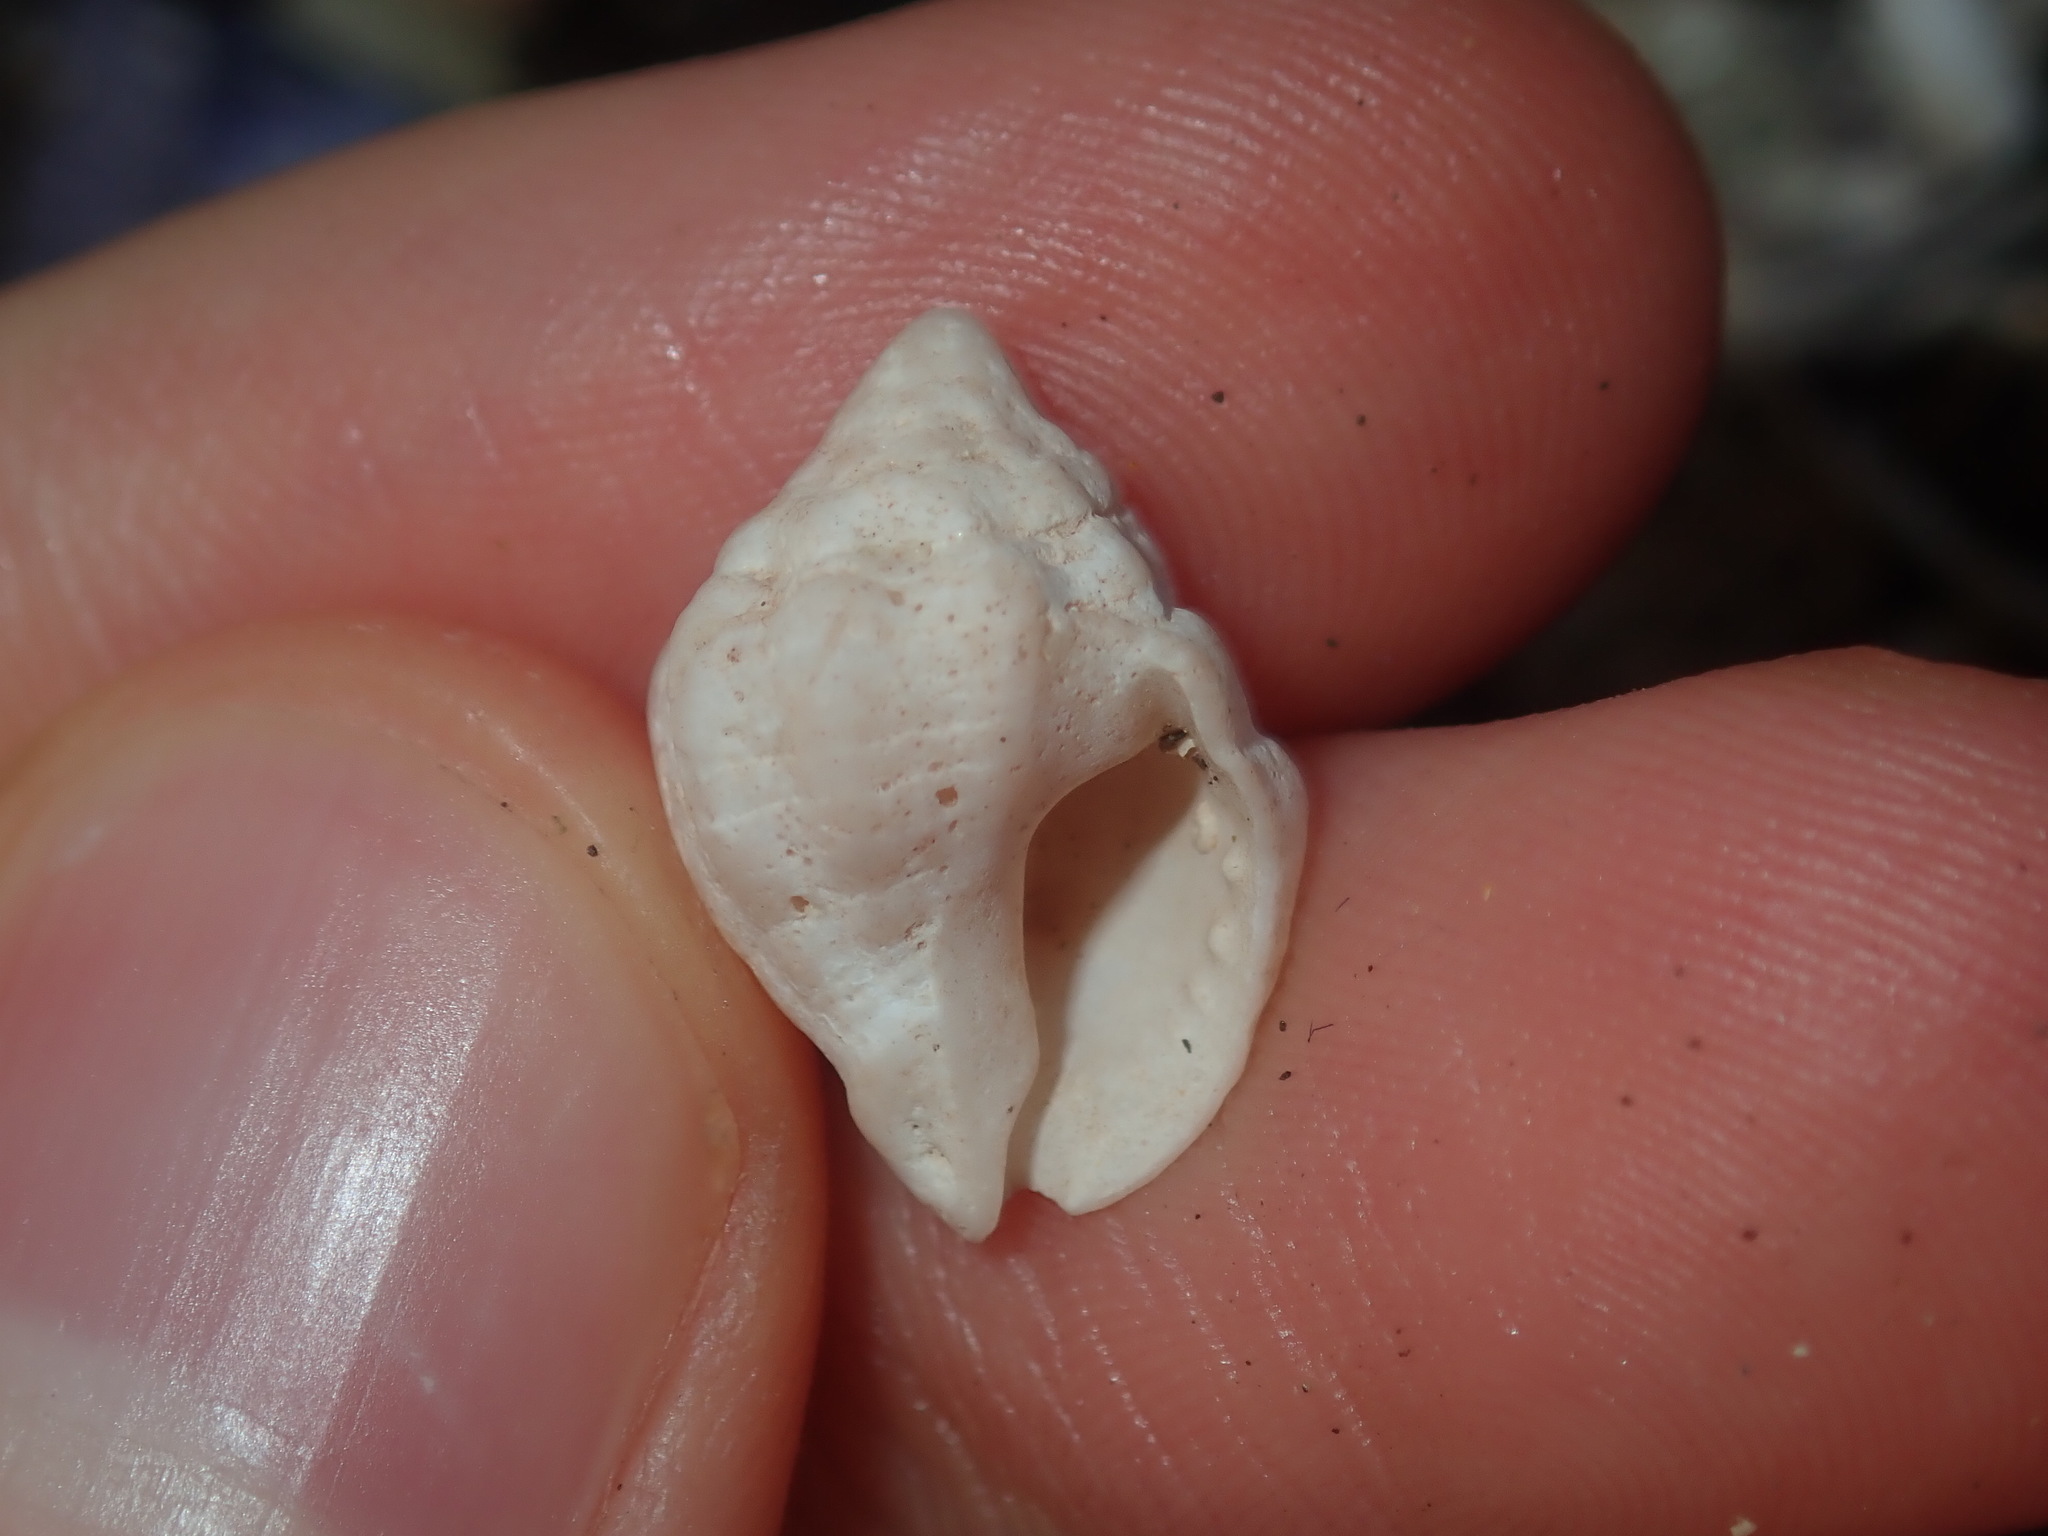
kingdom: Animalia
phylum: Mollusca
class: Gastropoda
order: Neogastropoda
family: Muricidae
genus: Oppomorus
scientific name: Oppomorus noduliferus
